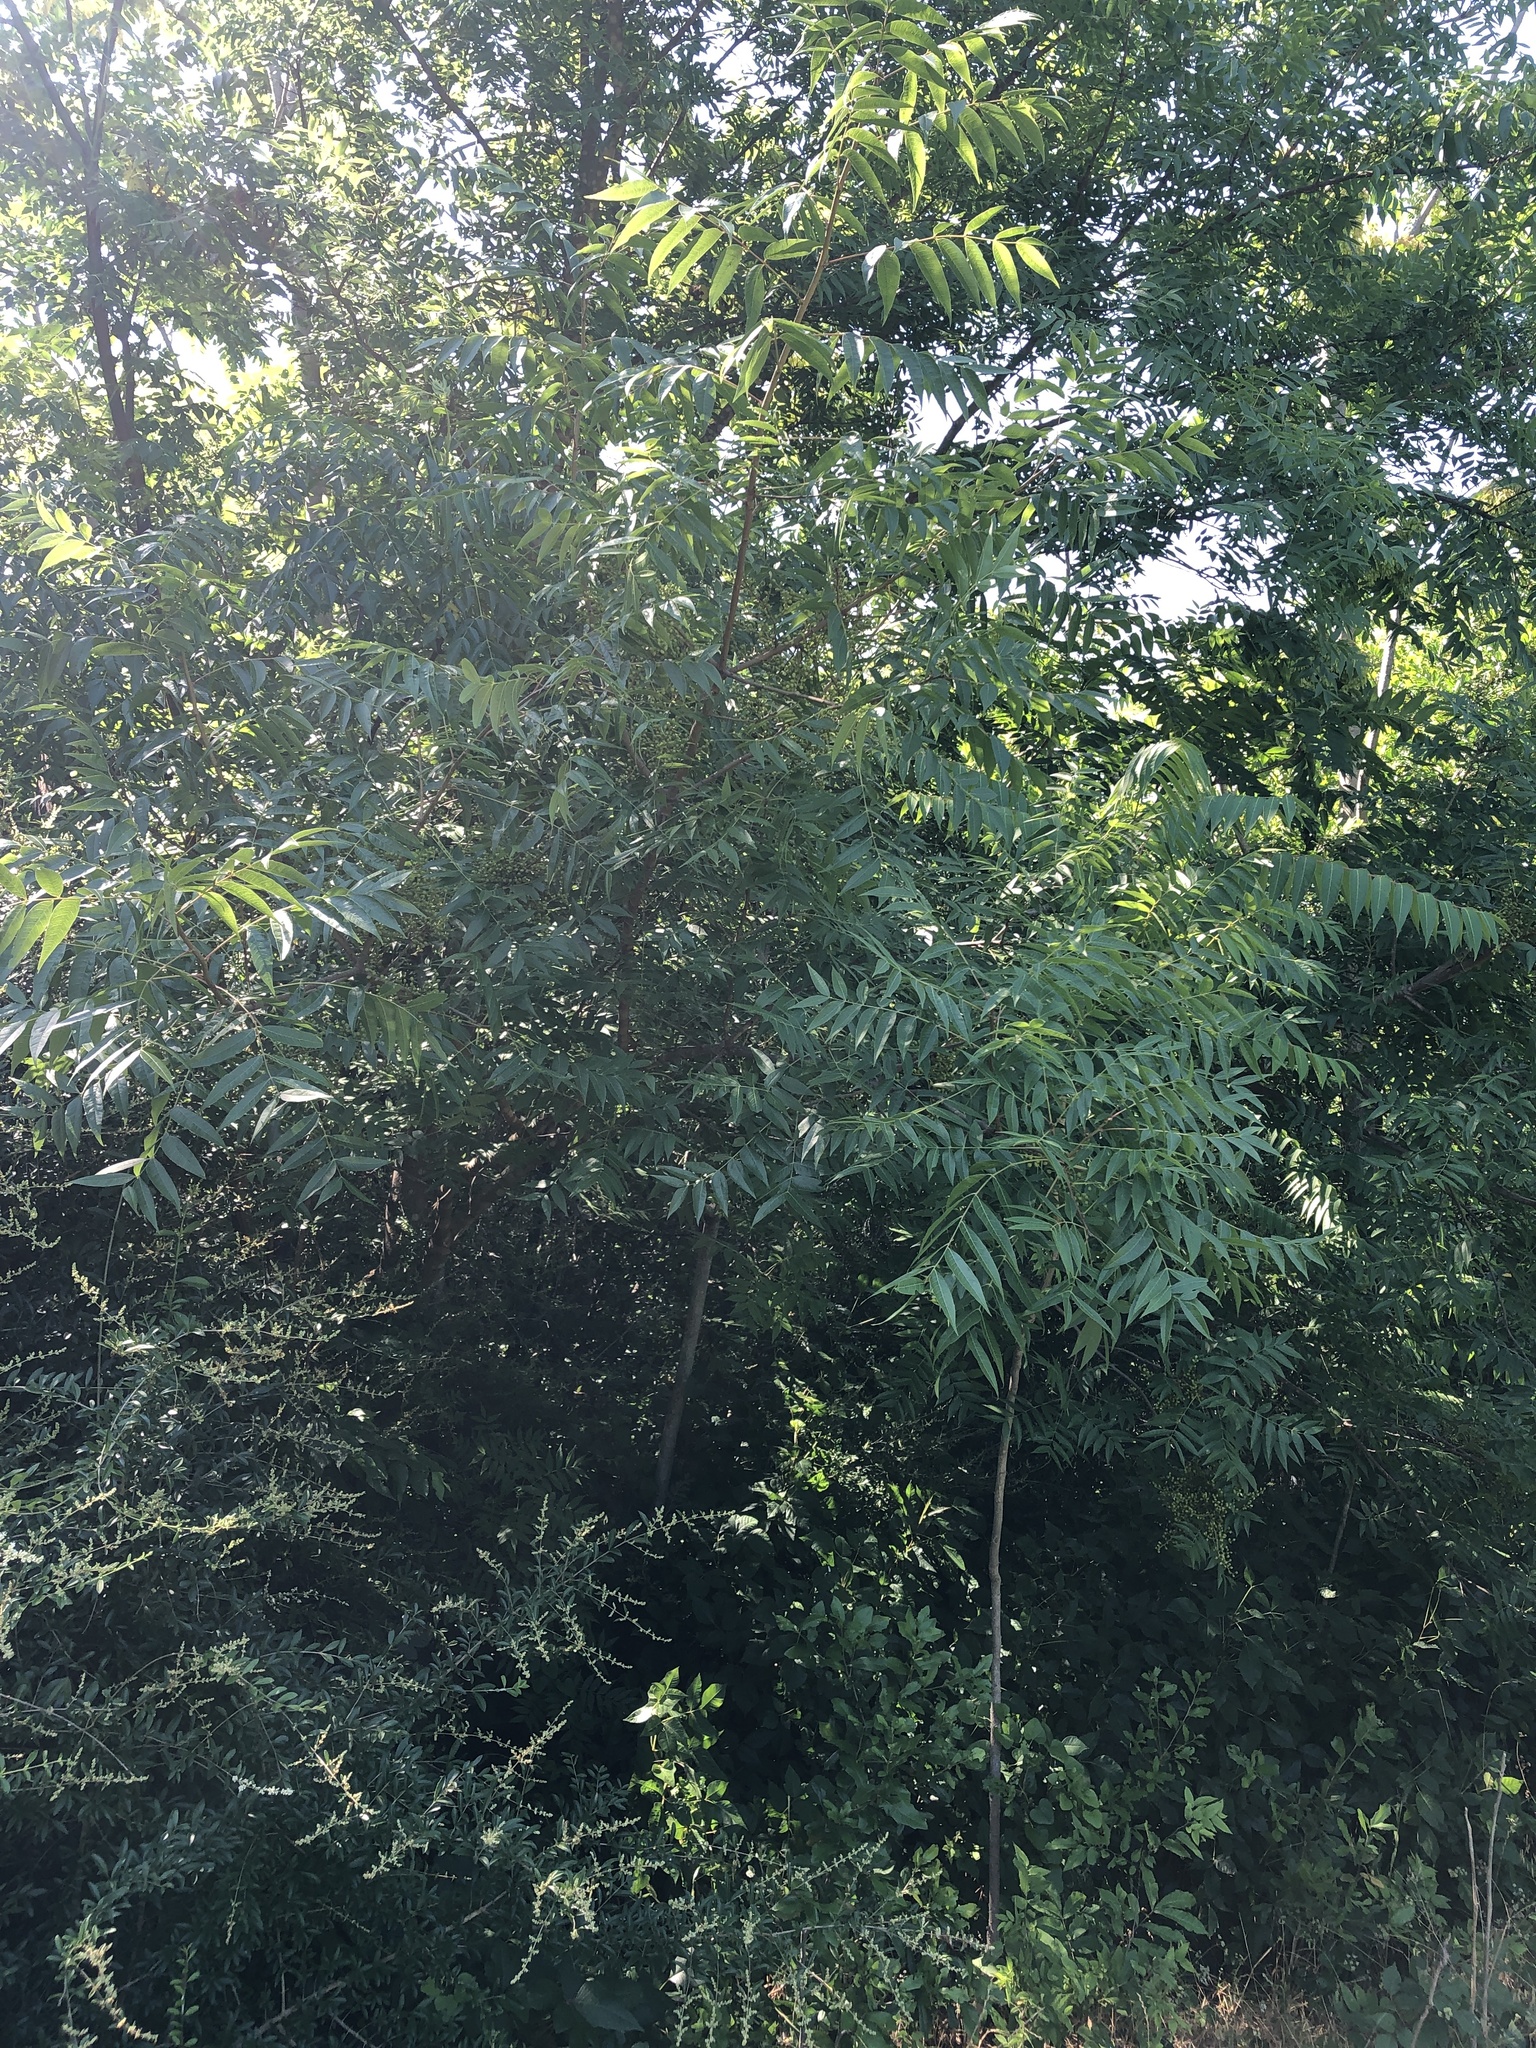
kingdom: Plantae
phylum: Tracheophyta
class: Magnoliopsida
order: Sapindales
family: Anacardiaceae
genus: Pistacia
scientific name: Pistacia chinensis
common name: Chinese pistache
